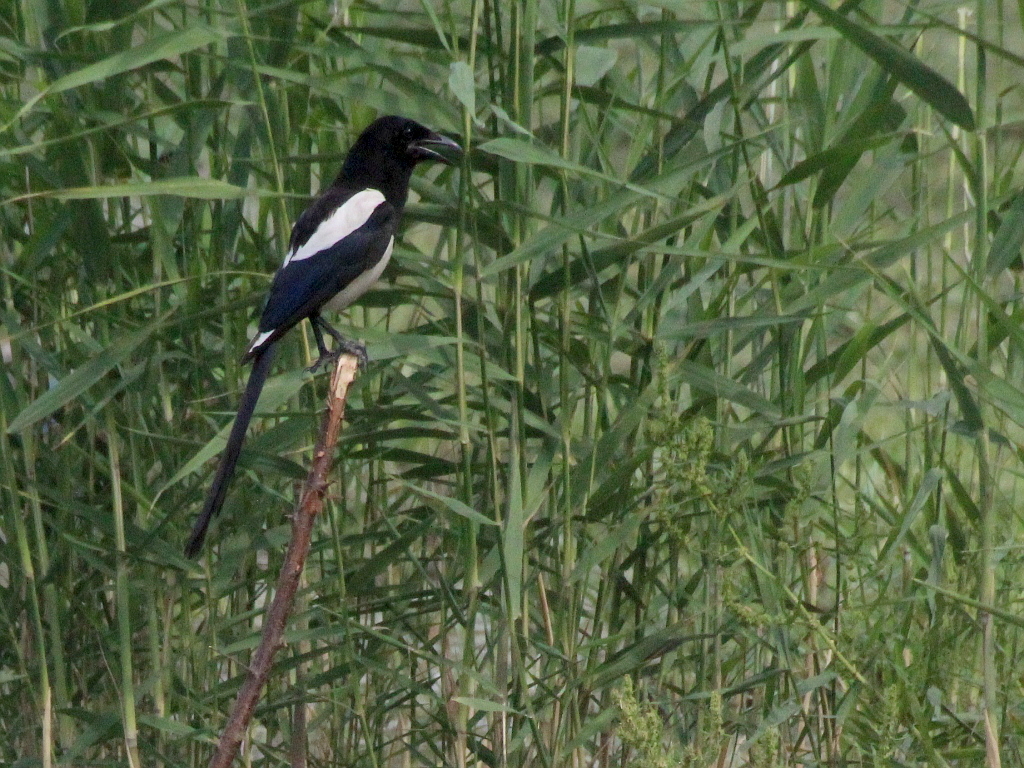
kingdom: Animalia
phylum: Chordata
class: Aves
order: Passeriformes
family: Corvidae
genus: Pica
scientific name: Pica pica
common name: Eurasian magpie
